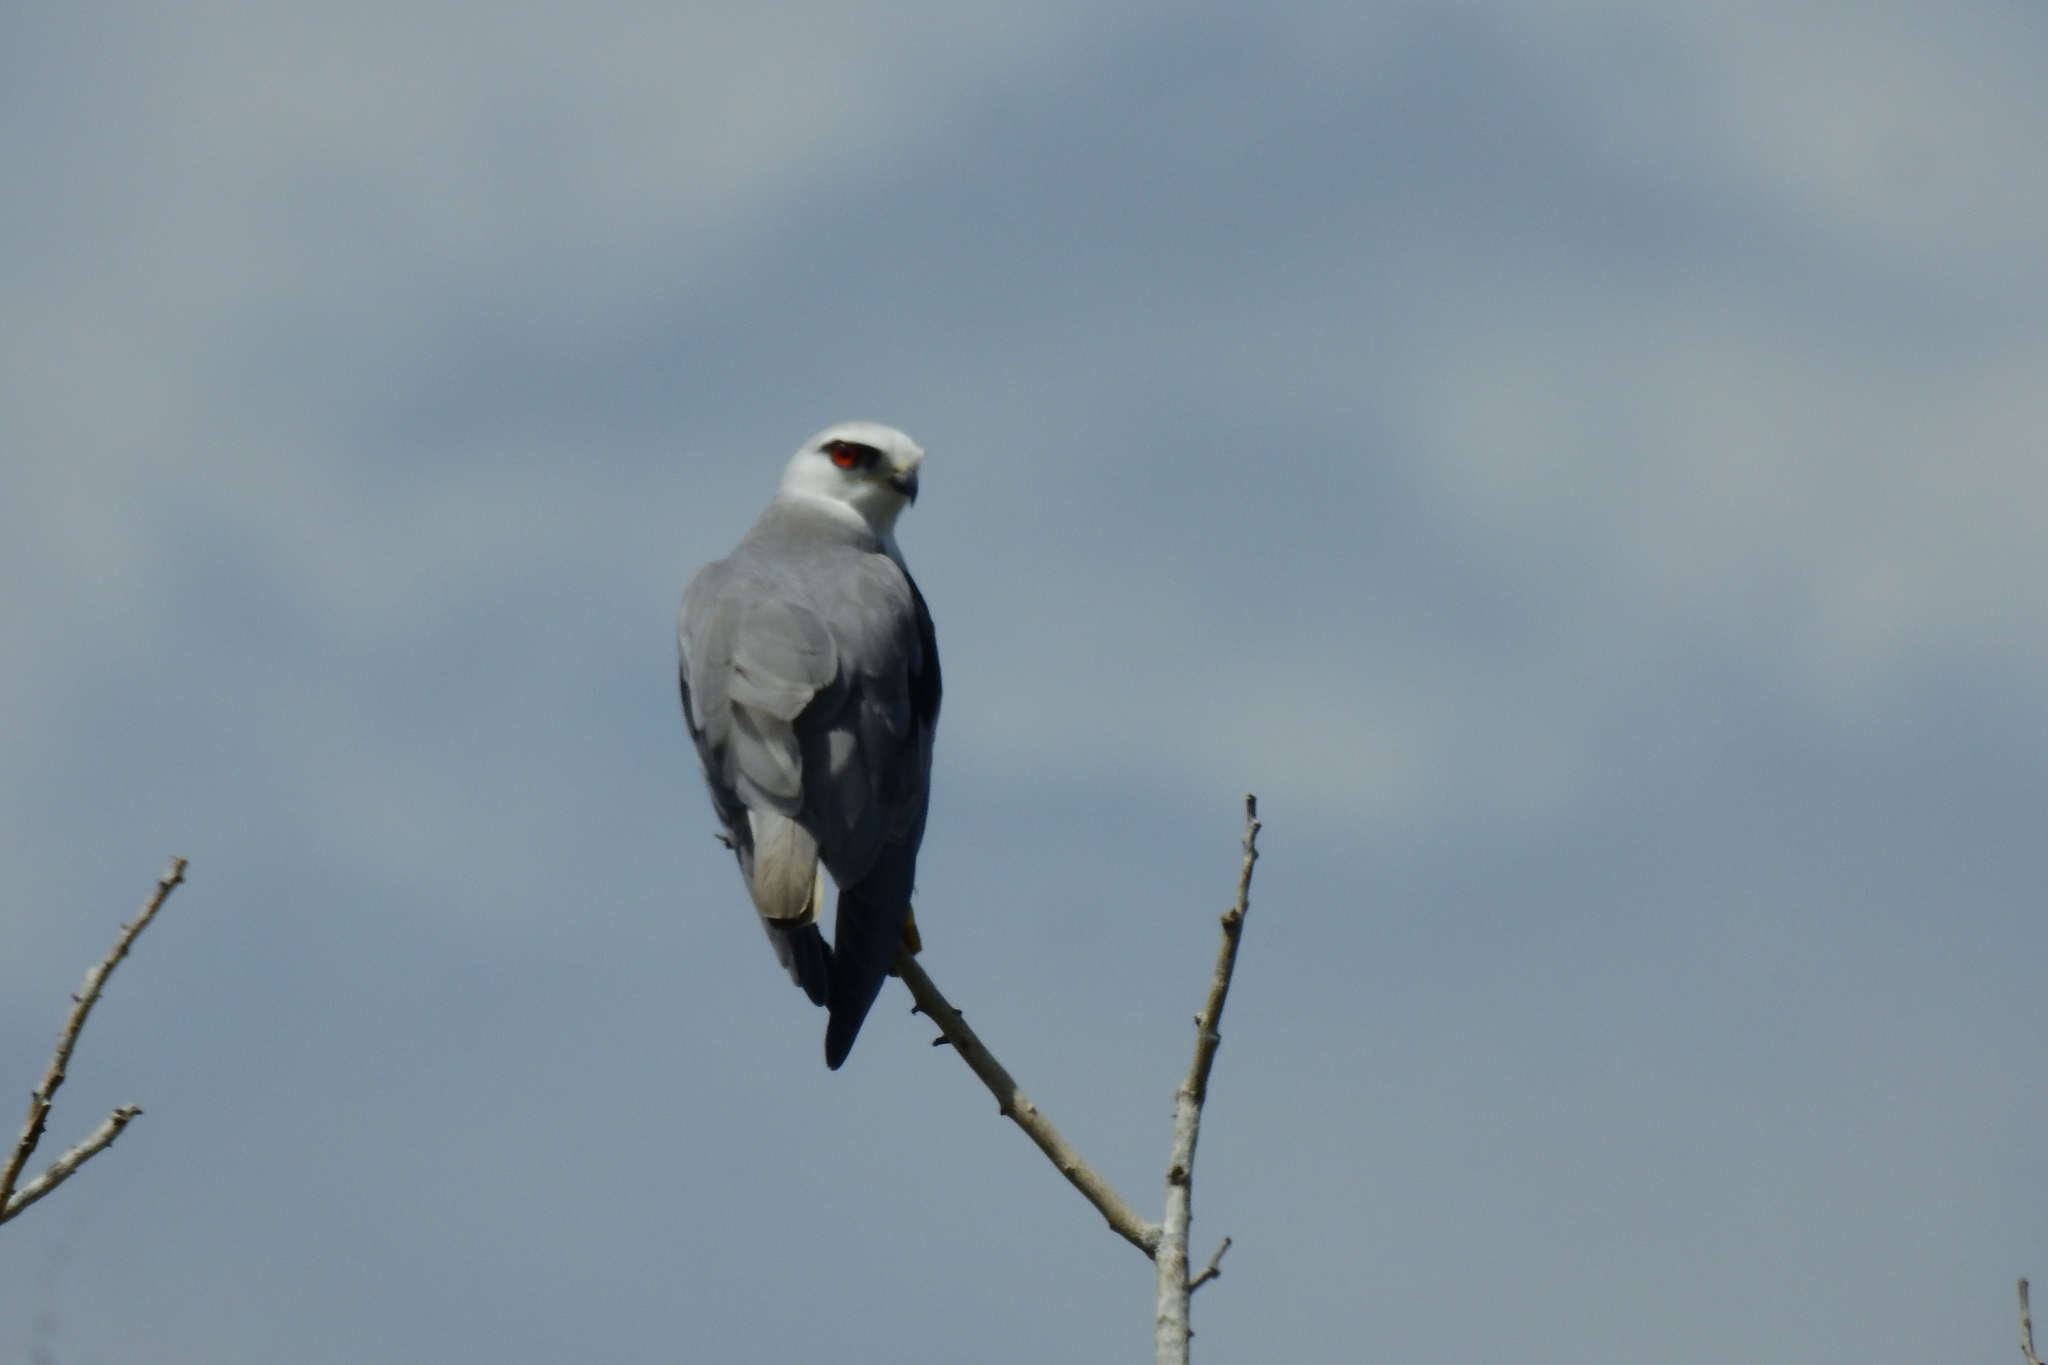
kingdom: Animalia
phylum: Chordata
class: Aves
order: Accipitriformes
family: Accipitridae
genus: Elanus
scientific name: Elanus caeruleus
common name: Black-winged kite
